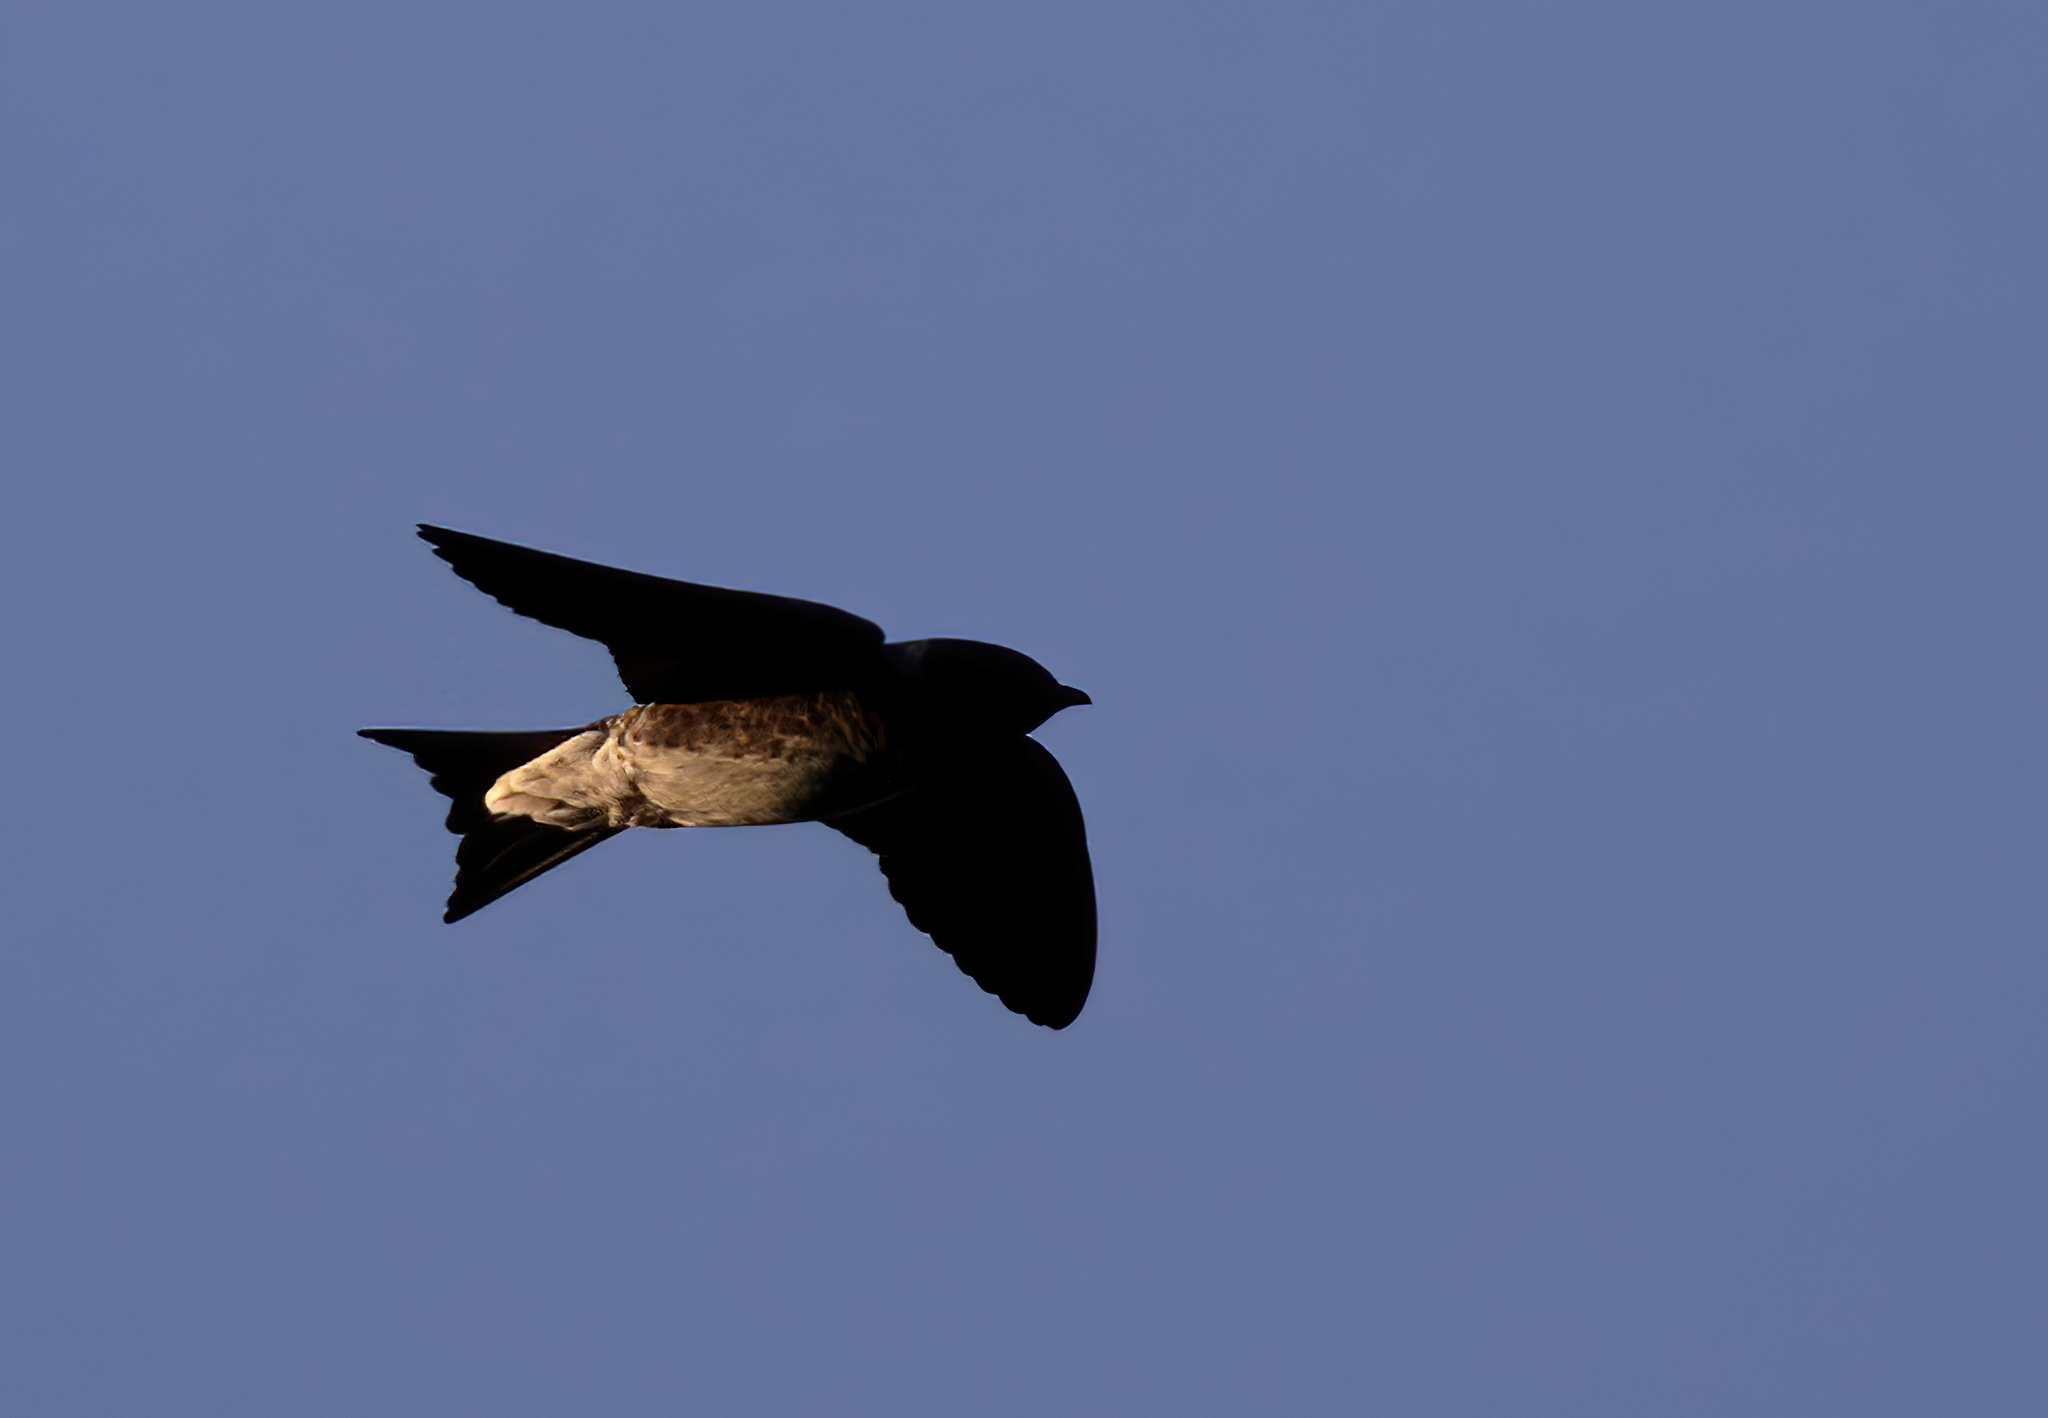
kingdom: Animalia
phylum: Chordata
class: Aves
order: Passeriformes
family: Hirundinidae
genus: Progne
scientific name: Progne subis
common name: Purple martin
